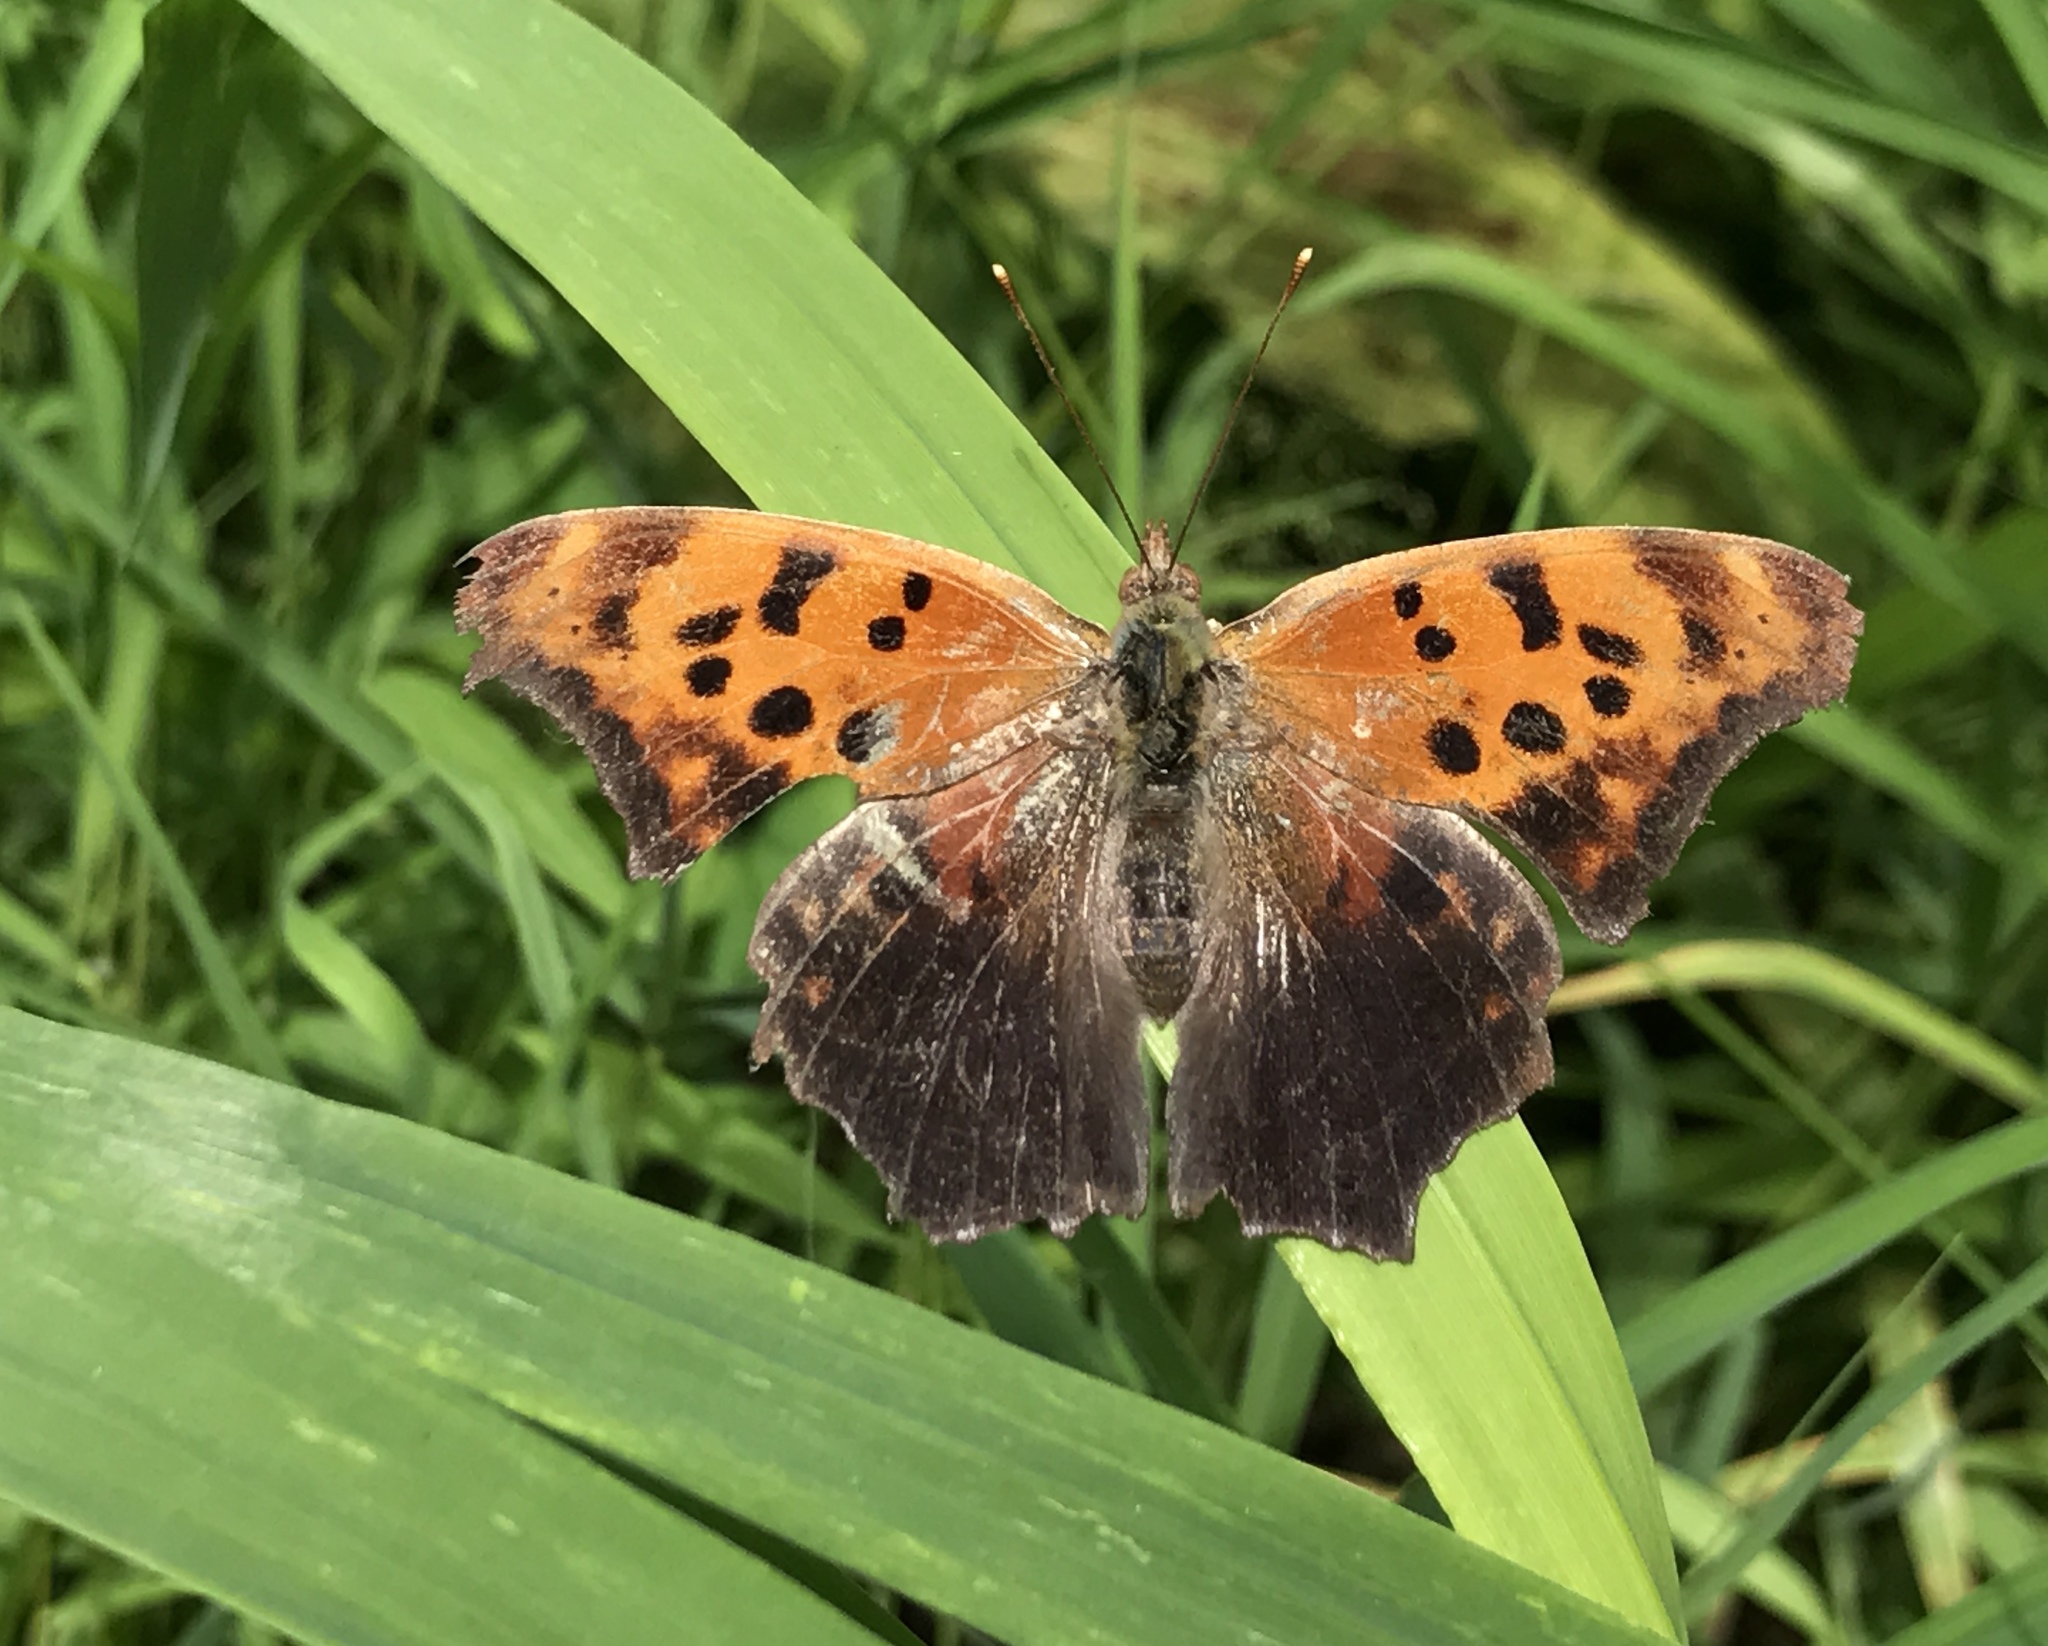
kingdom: Animalia
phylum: Arthropoda
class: Insecta
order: Lepidoptera
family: Nymphalidae
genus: Polygonia
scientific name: Polygonia interrogationis
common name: Question mark
